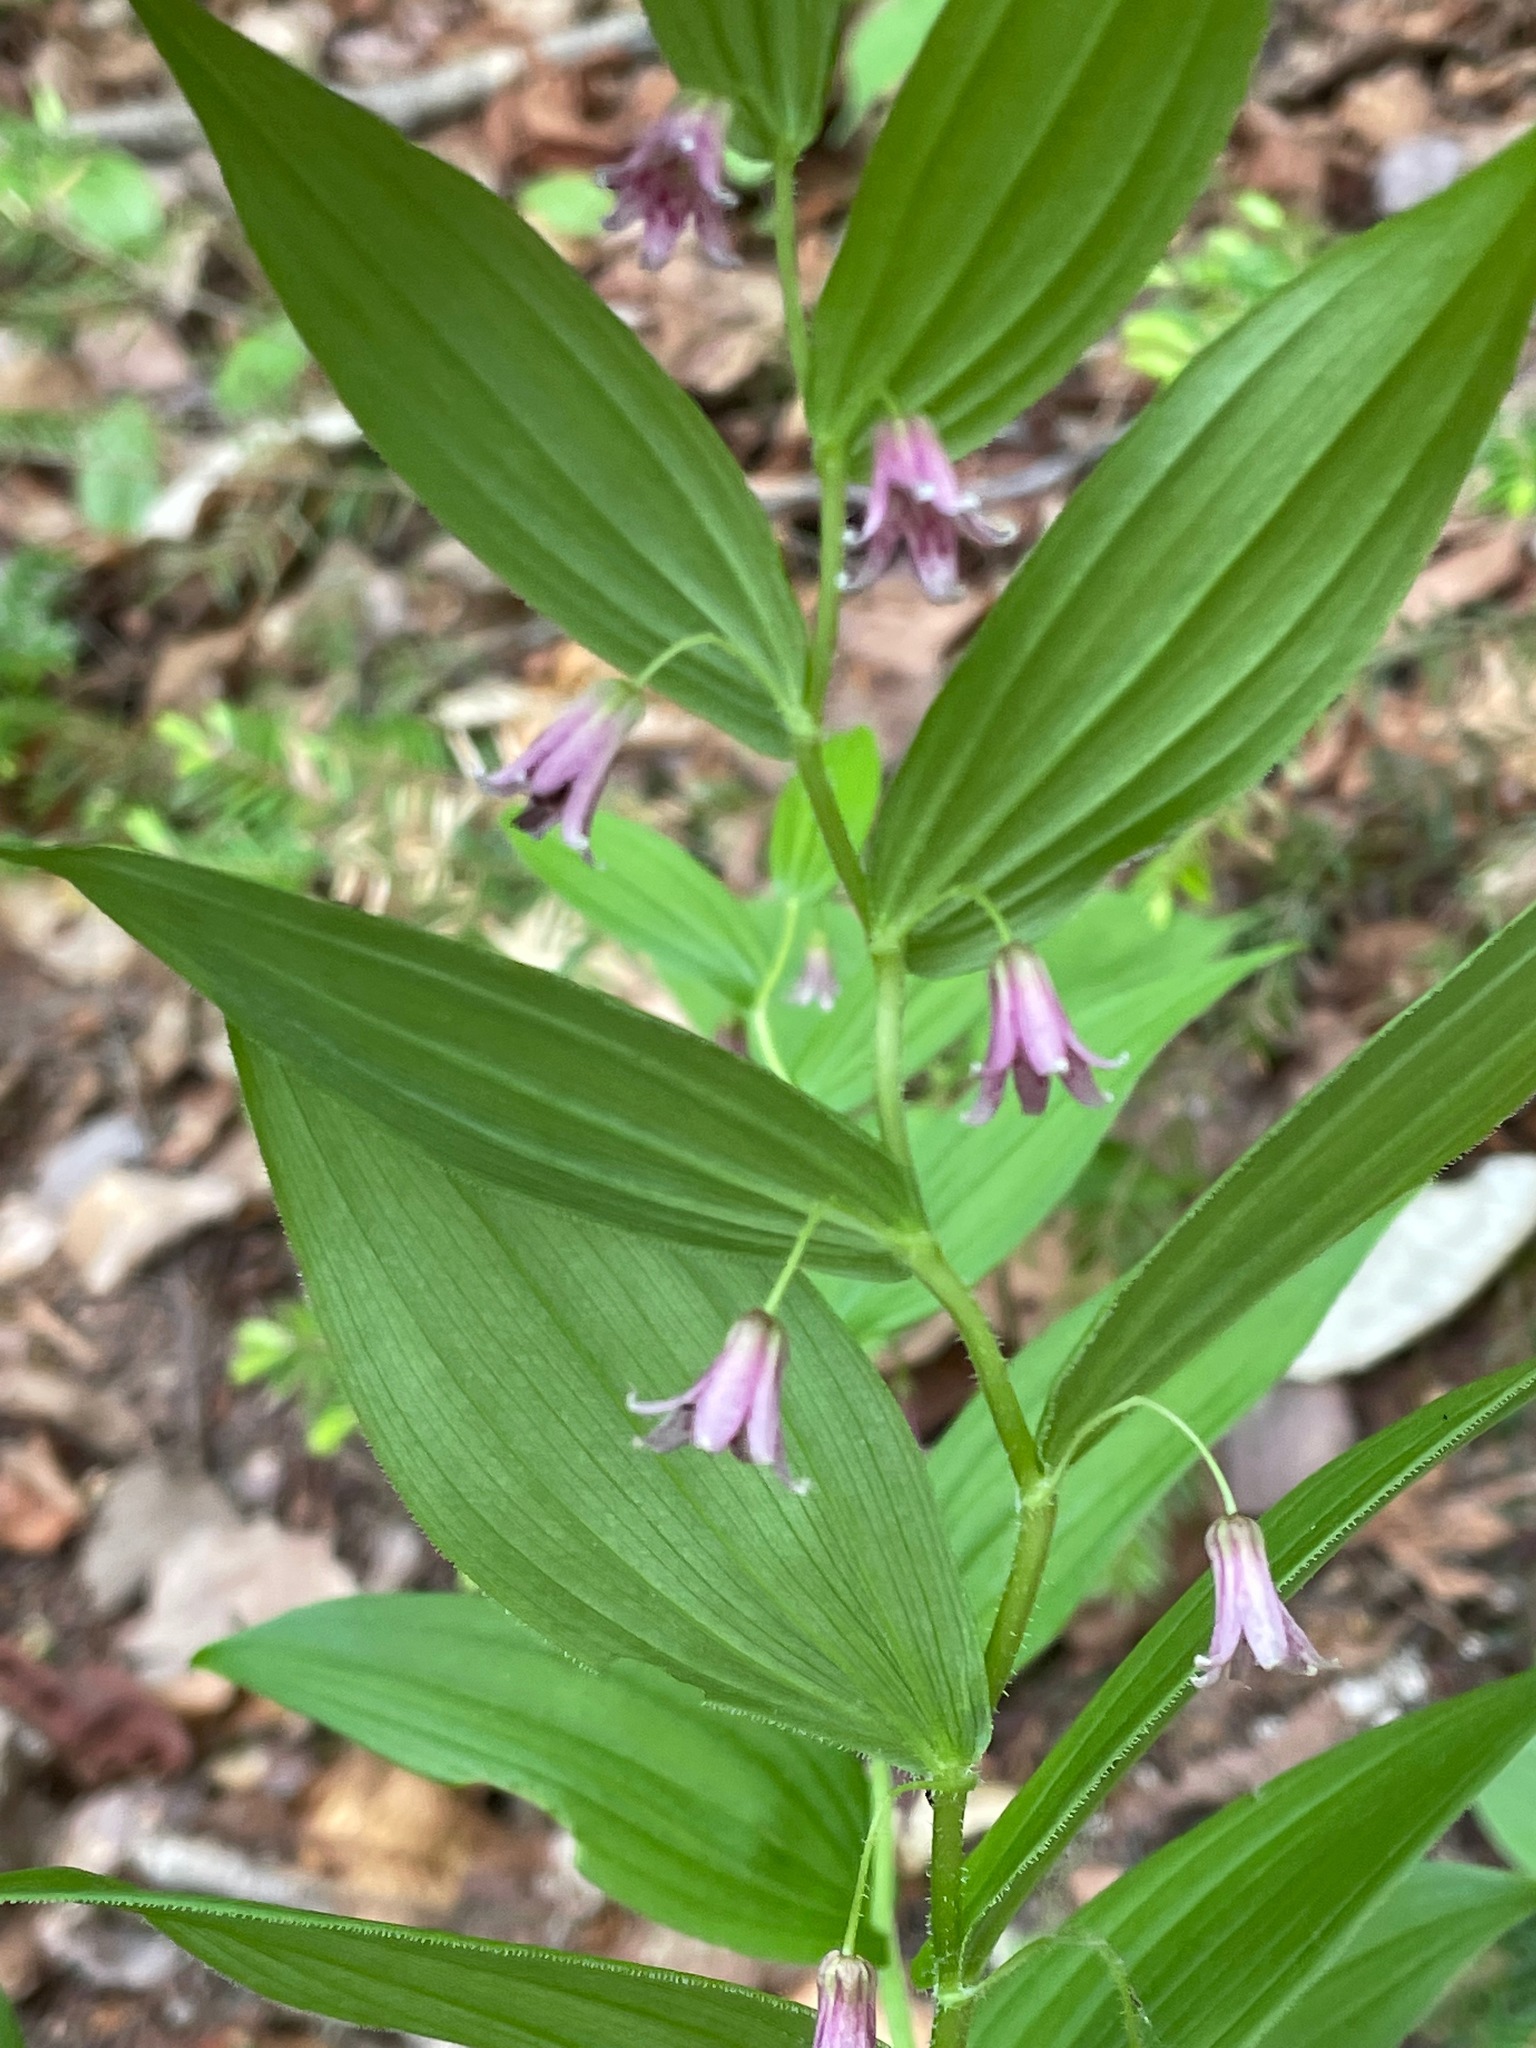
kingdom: Plantae
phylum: Tracheophyta
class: Liliopsida
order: Liliales
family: Liliaceae
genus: Streptopus
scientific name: Streptopus lanceolatus
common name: Rose mandarin
